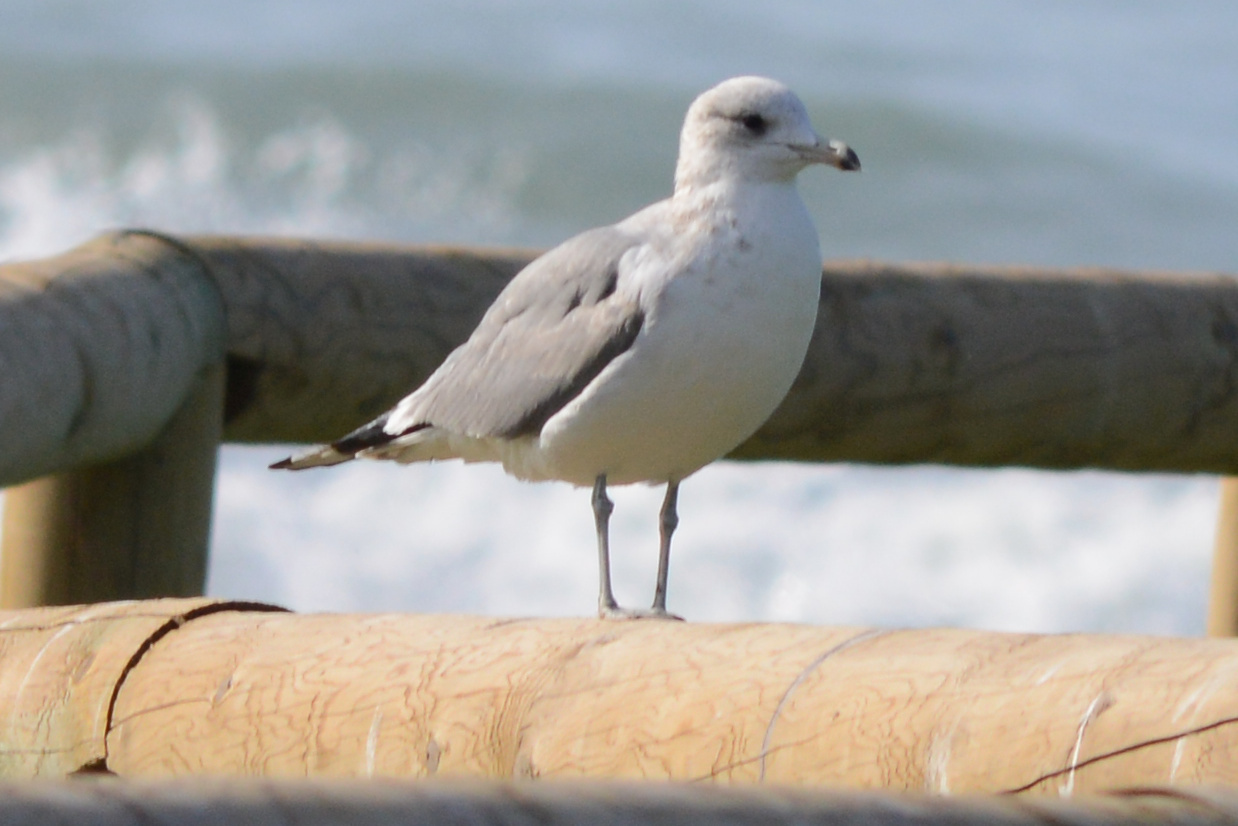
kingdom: Animalia
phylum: Chordata
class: Aves
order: Charadriiformes
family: Laridae
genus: Larus
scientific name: Larus delawarensis
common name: Ring-billed gull
